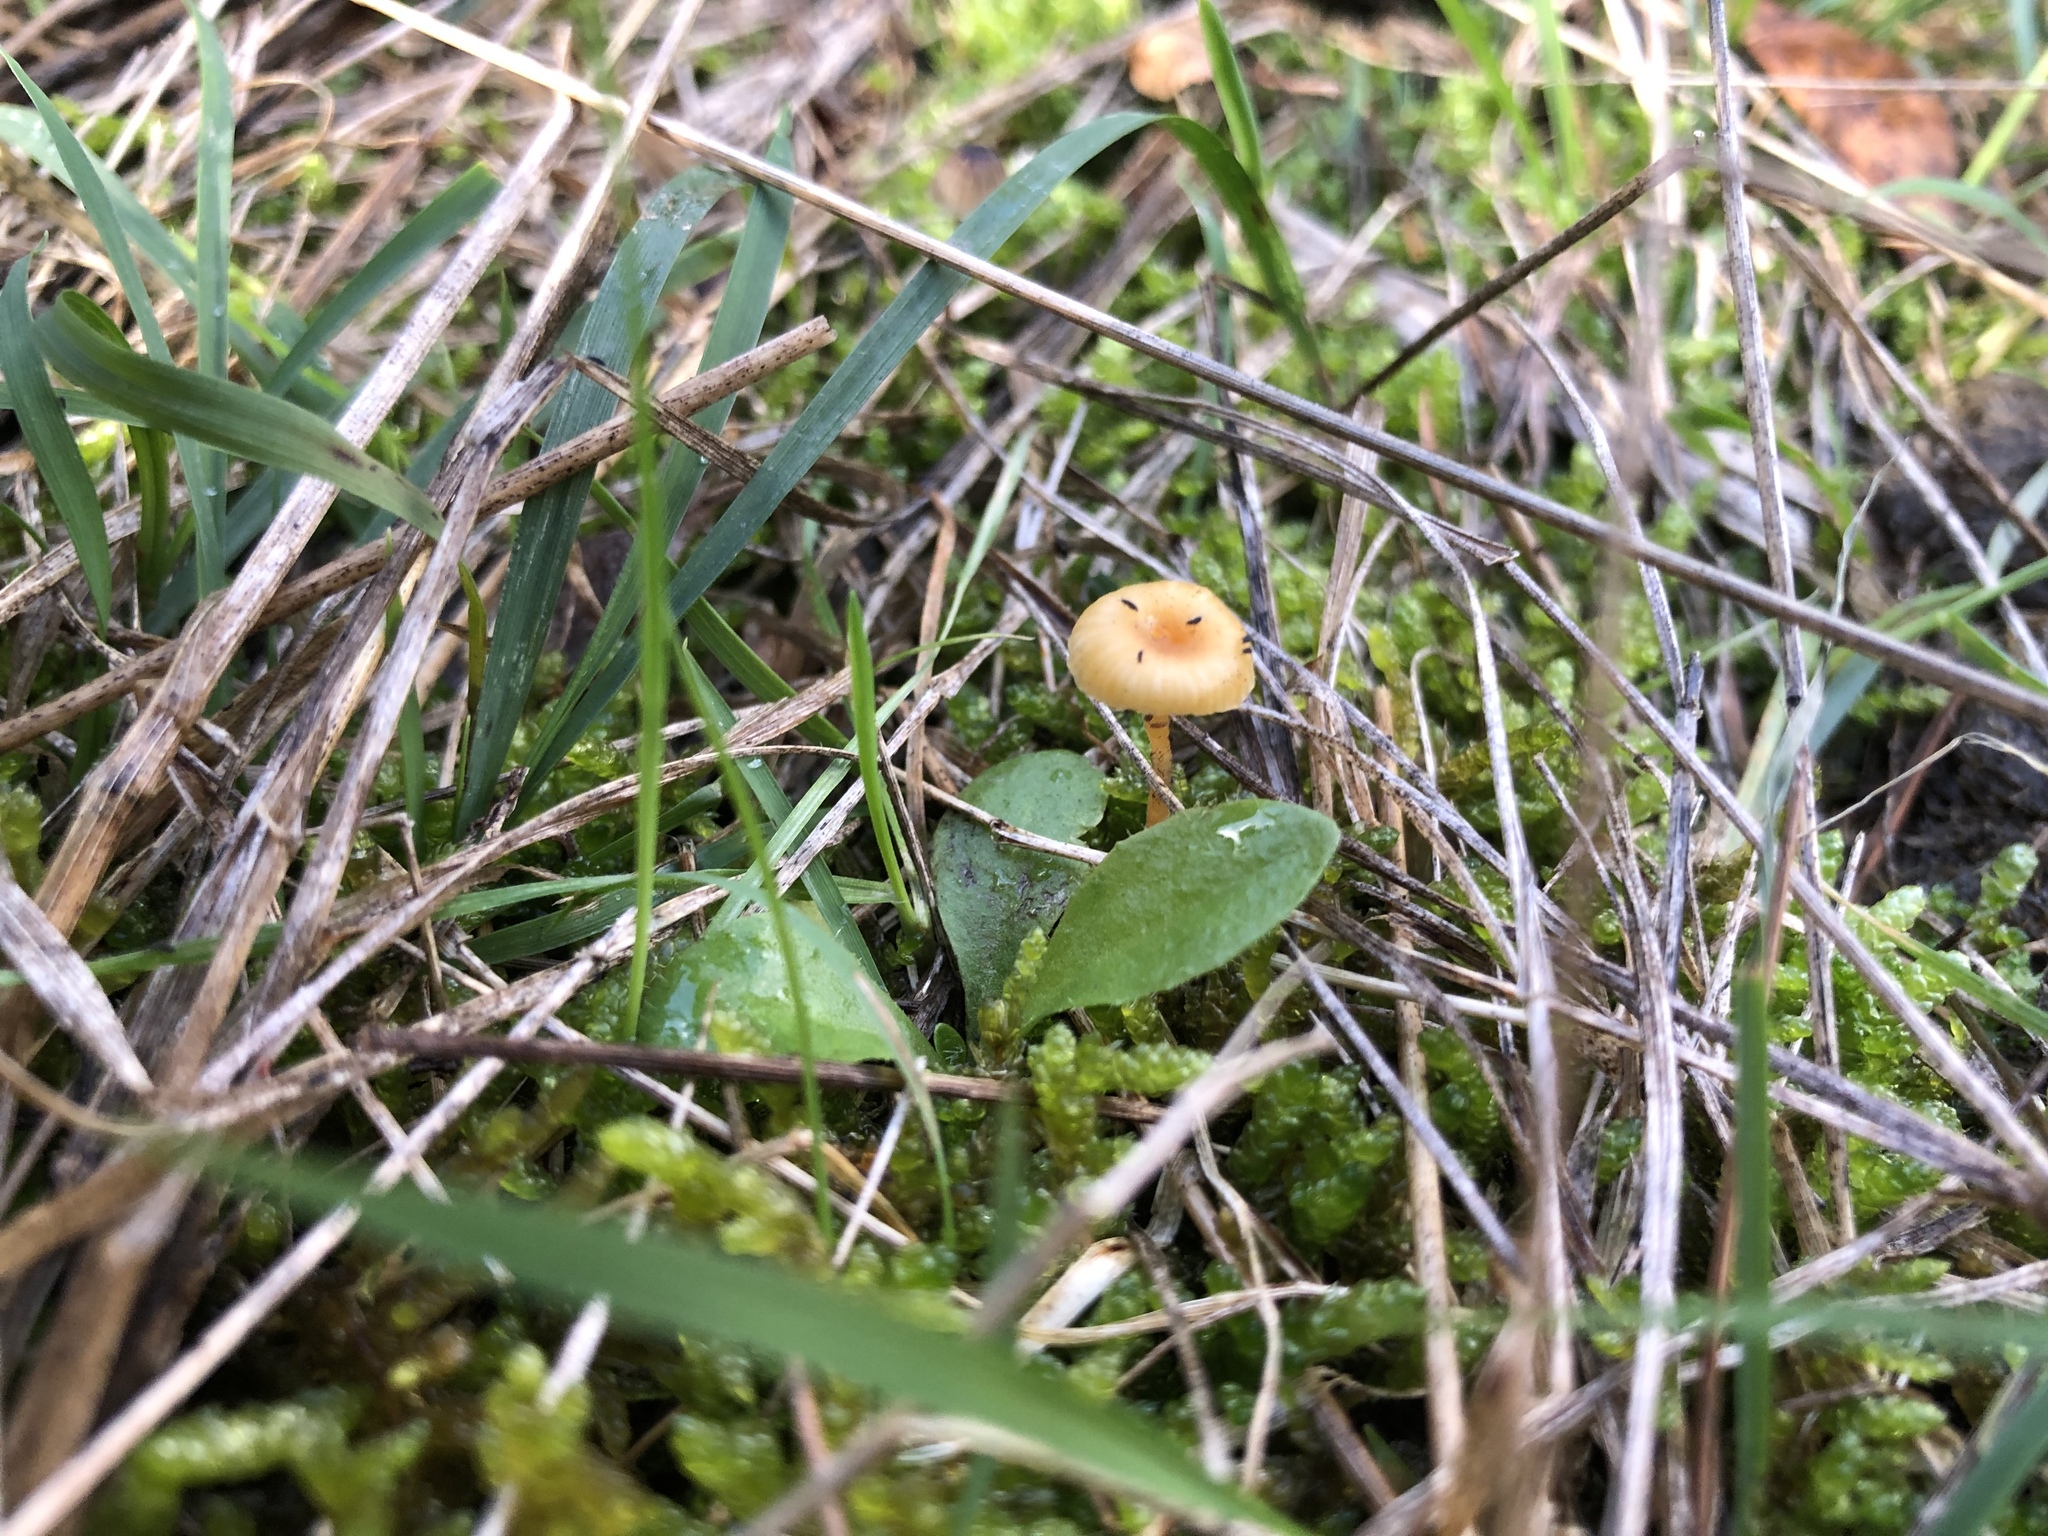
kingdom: Fungi
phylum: Basidiomycota
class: Agaricomycetes
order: Hymenochaetales
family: Rickenellaceae
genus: Rickenella
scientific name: Rickenella fibula
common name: Orange mosscap
